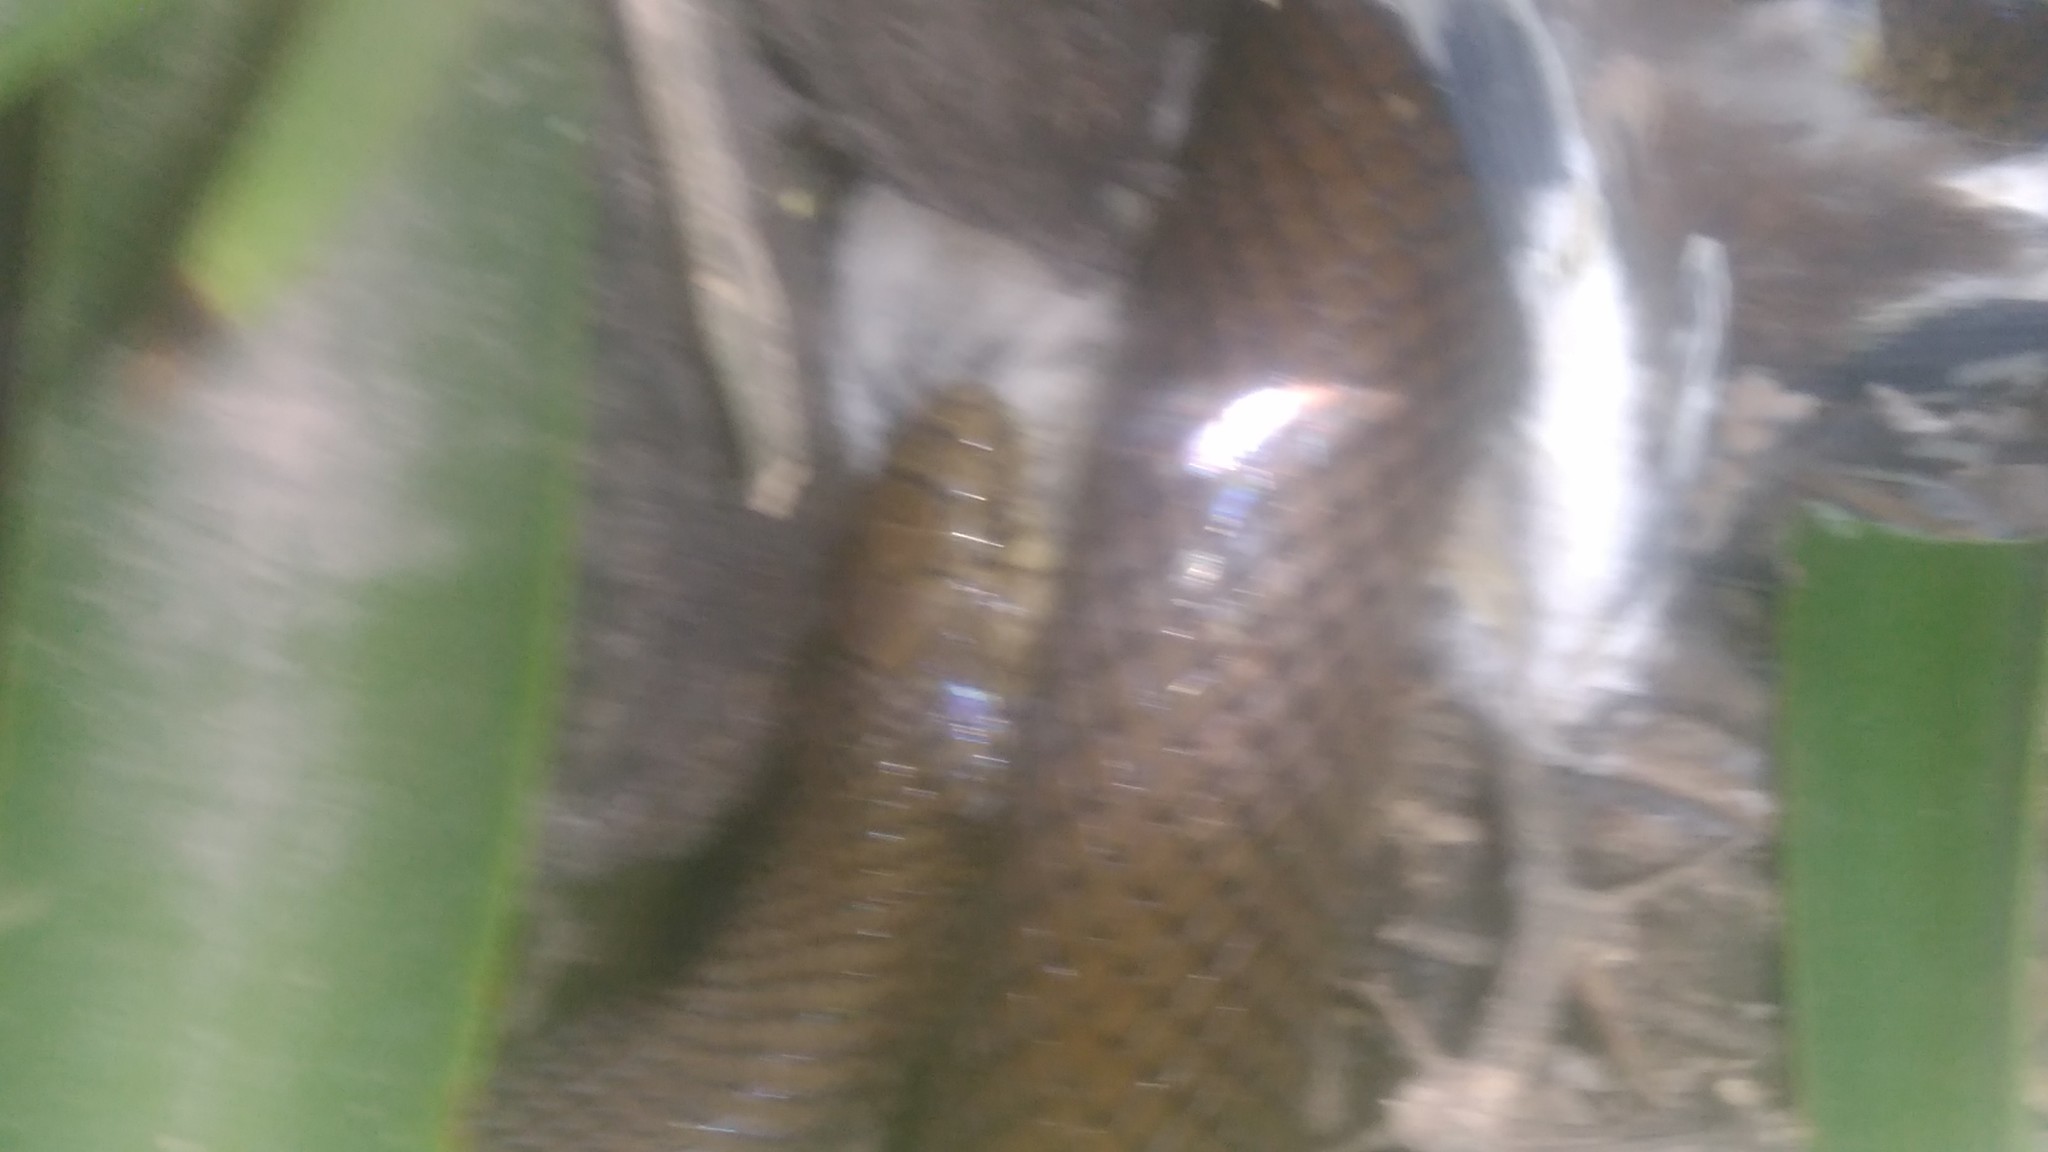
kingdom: Animalia
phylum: Chordata
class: Aves
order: Passeriformes
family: Mimidae
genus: Mimus
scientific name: Mimus saturninus
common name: Chalk-browed mockingbird
